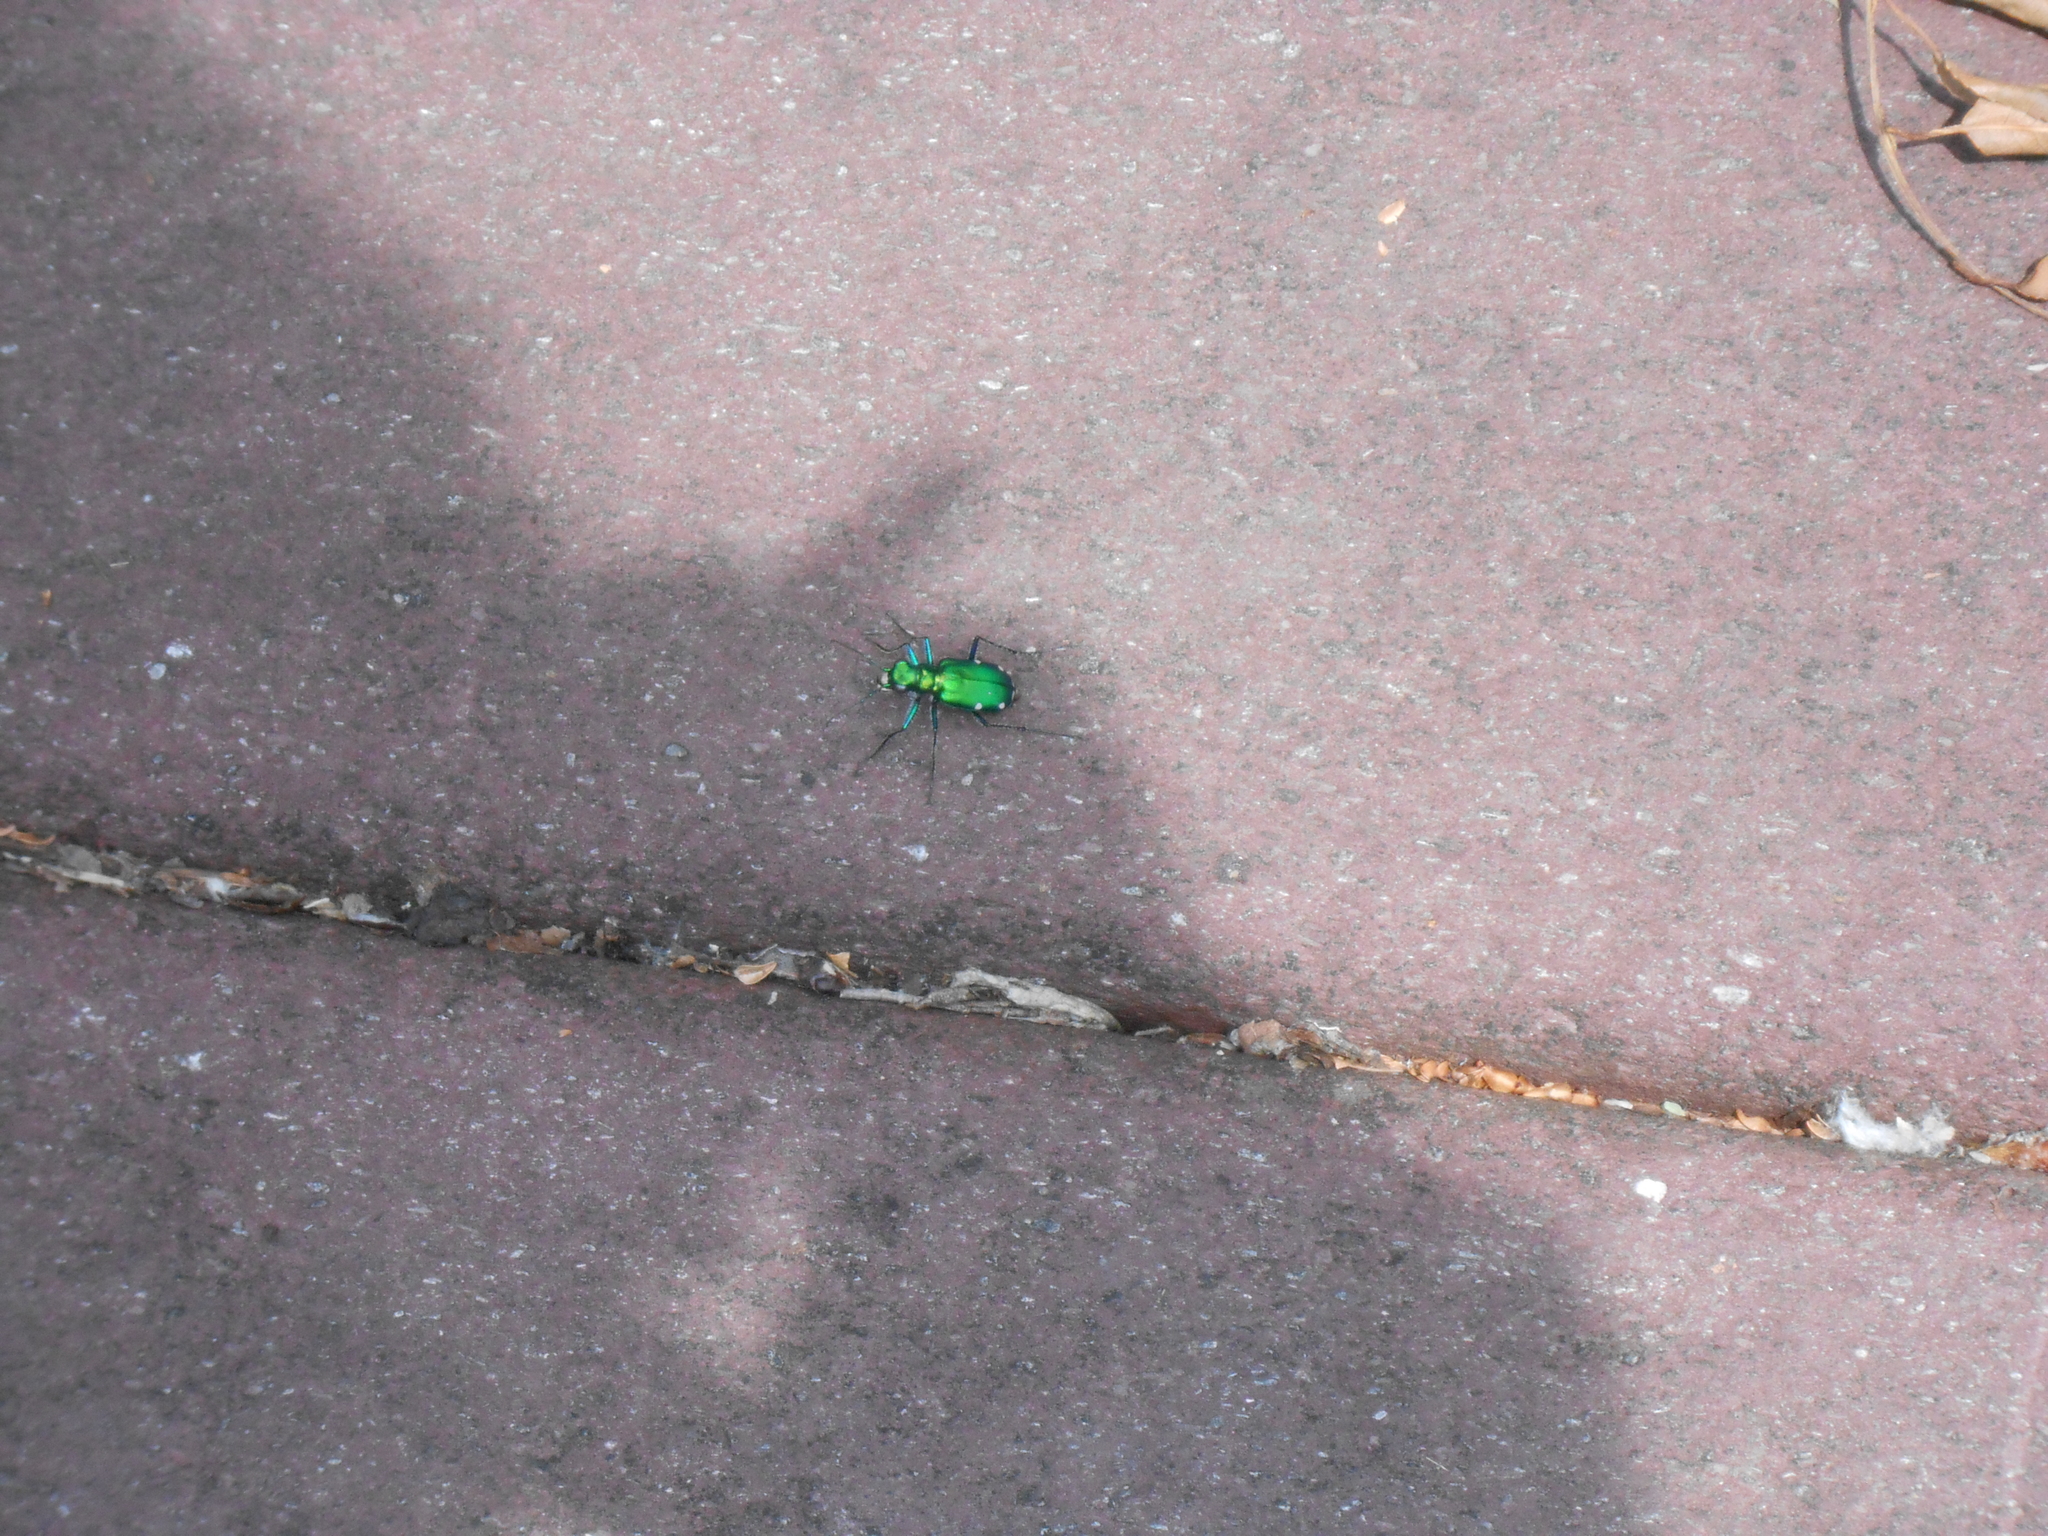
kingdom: Animalia
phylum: Arthropoda
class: Insecta
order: Coleoptera
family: Carabidae
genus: Cicindela
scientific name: Cicindela sexguttata
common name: Six-spotted tiger beetle
